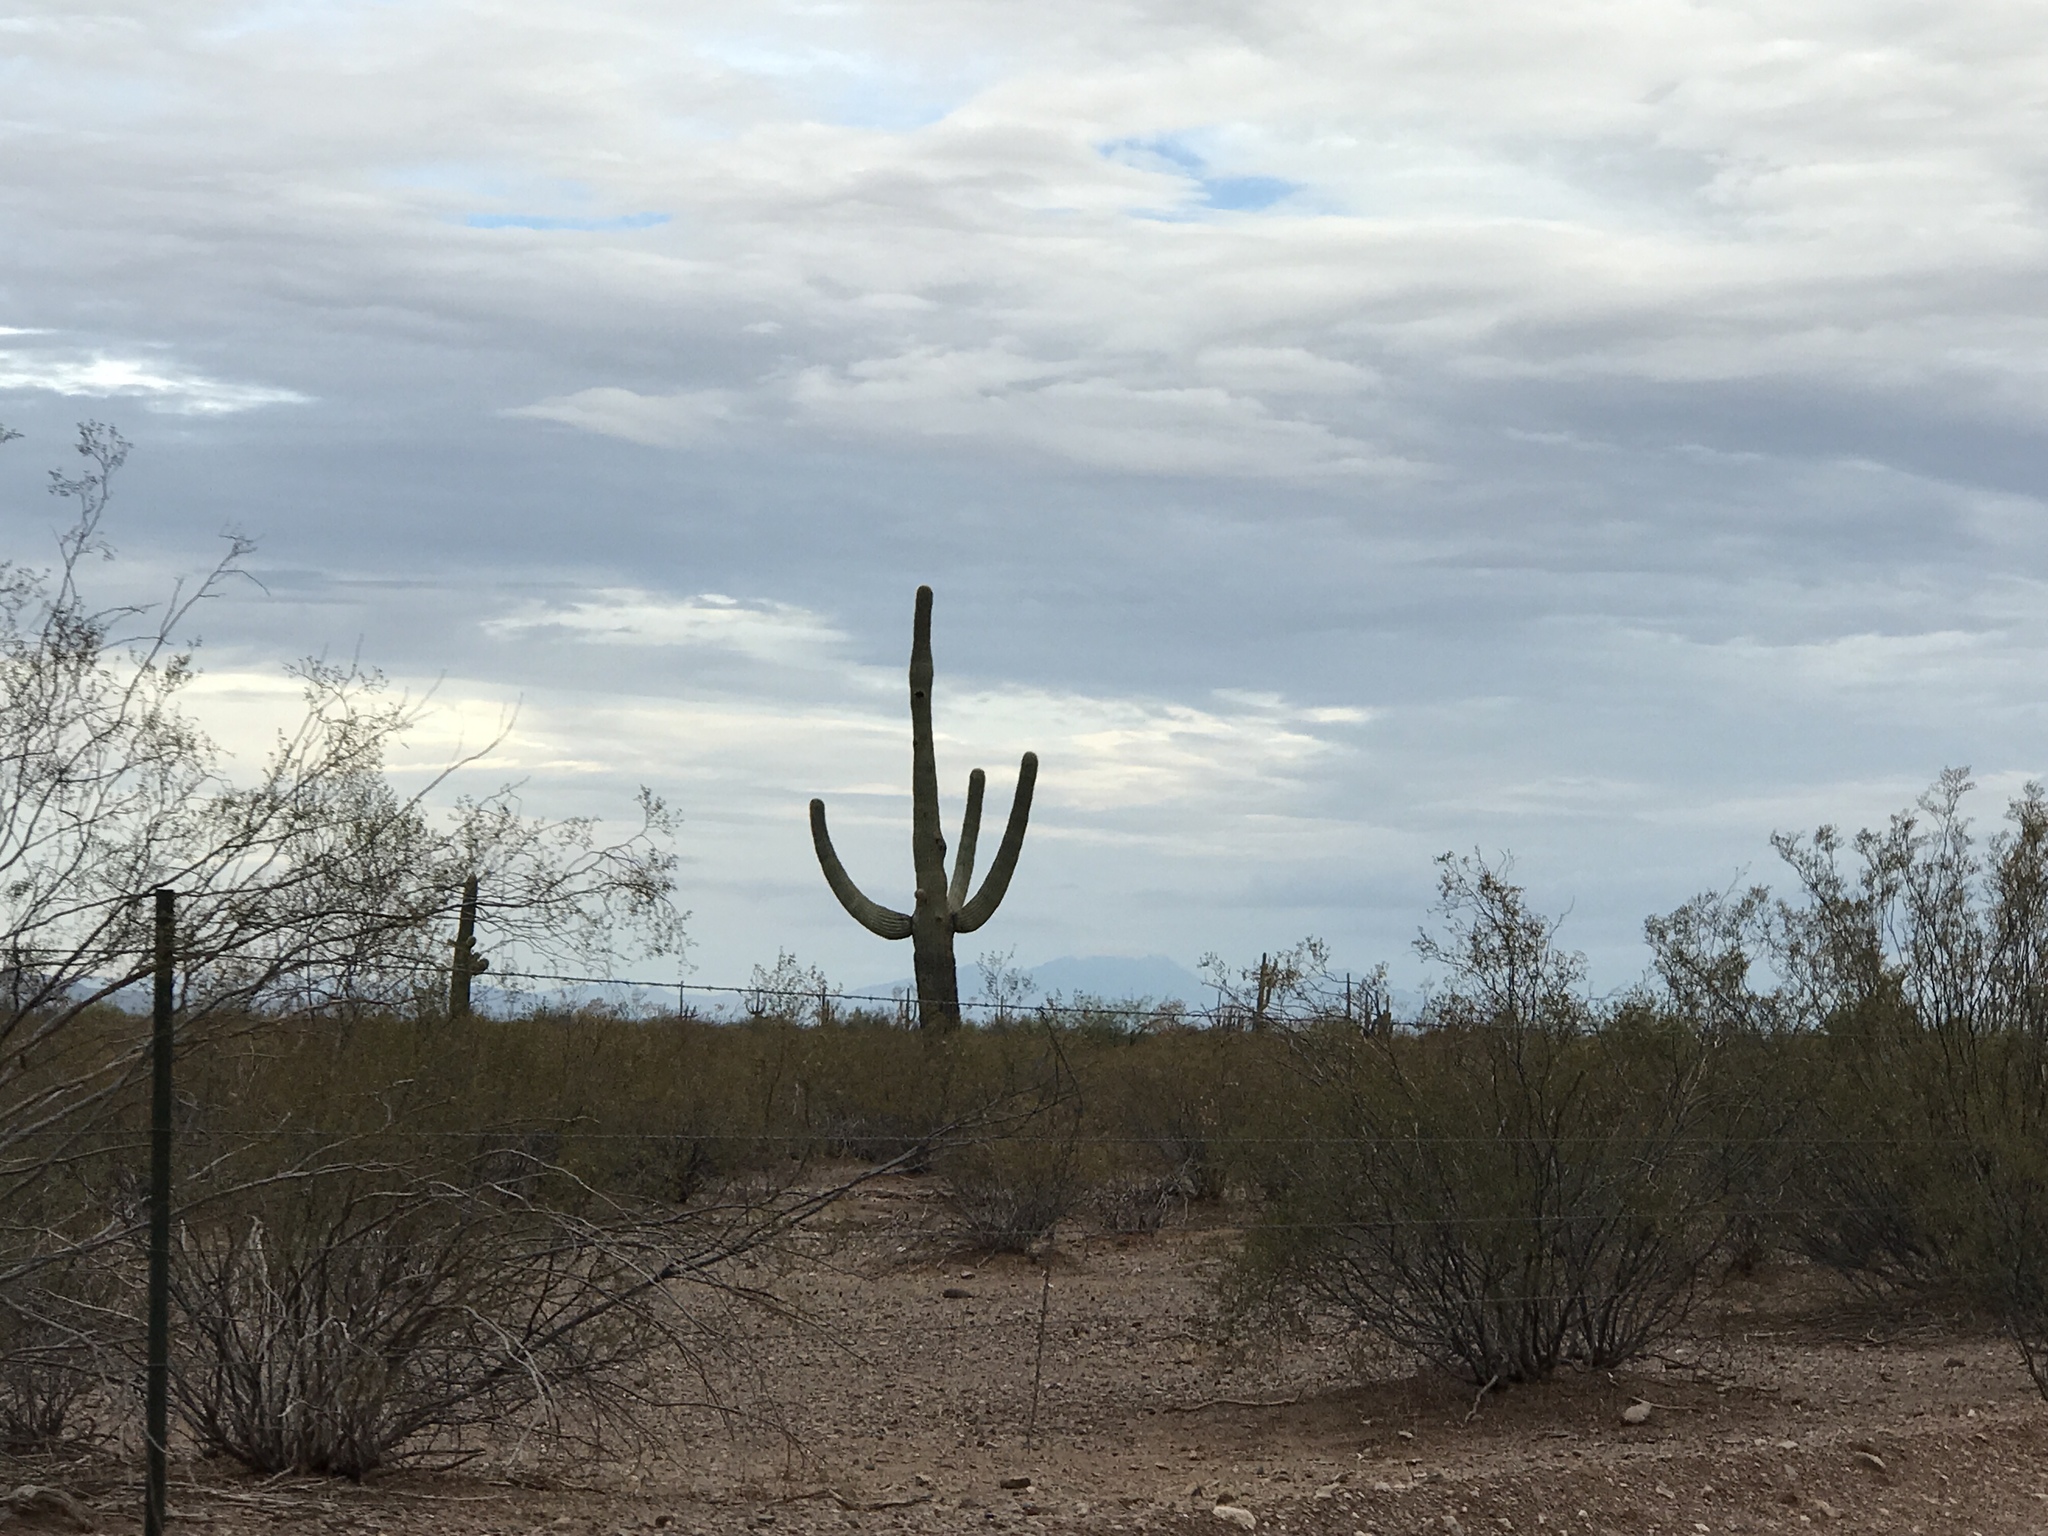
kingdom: Plantae
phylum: Tracheophyta
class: Magnoliopsida
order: Caryophyllales
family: Cactaceae
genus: Carnegiea
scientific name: Carnegiea gigantea
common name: Saguaro
